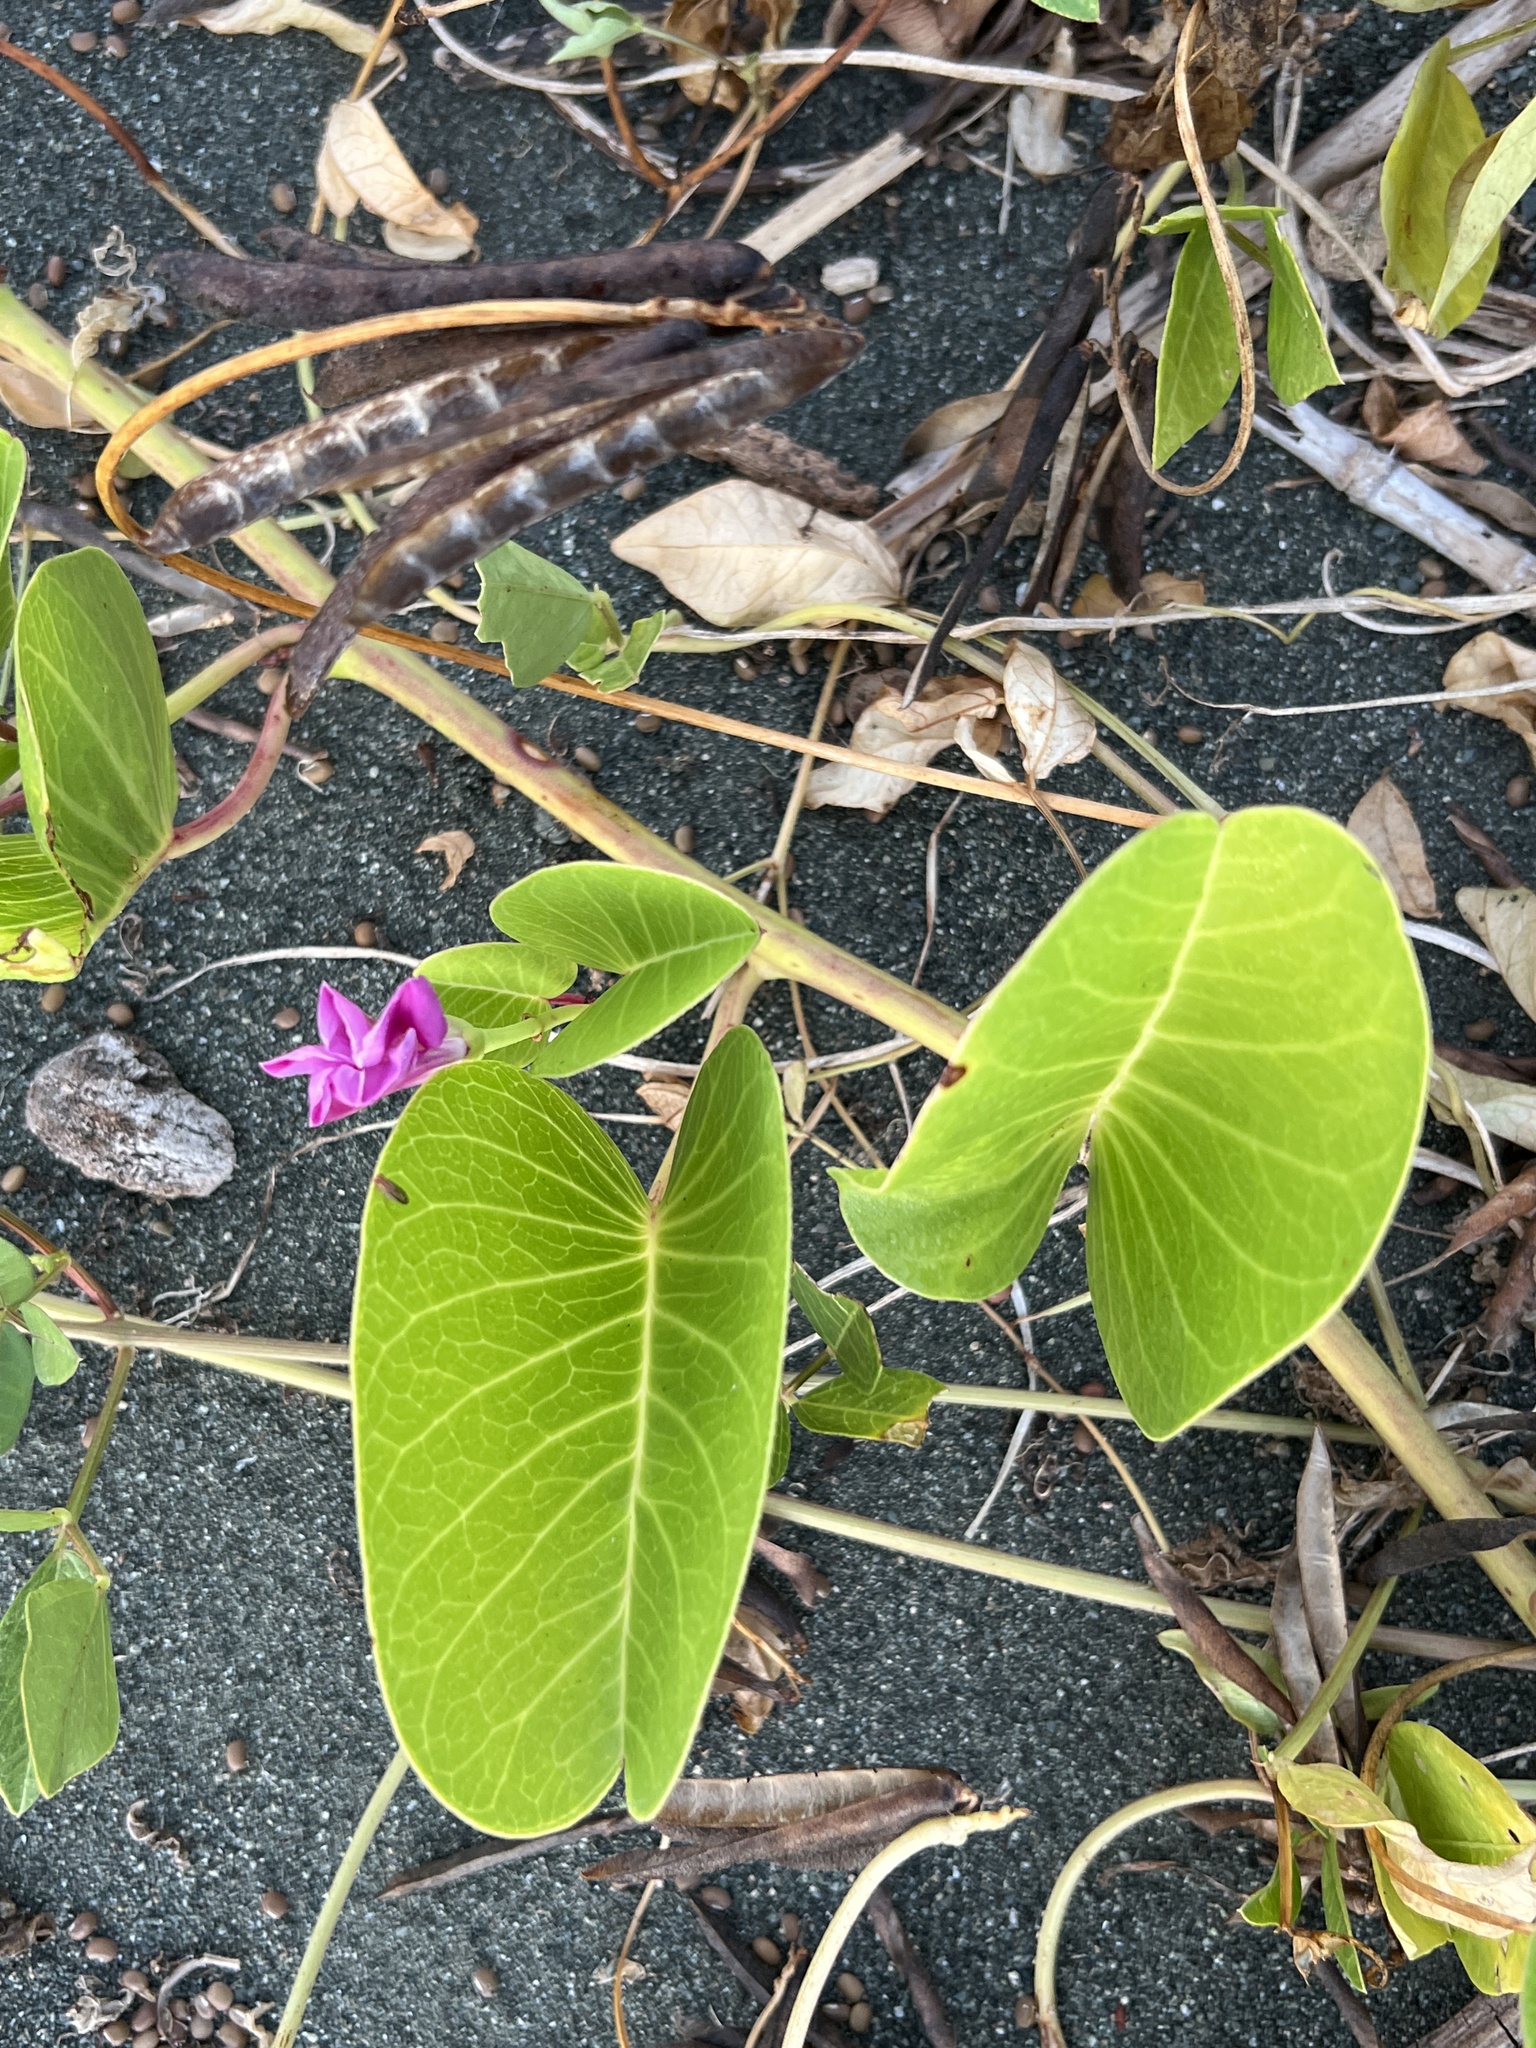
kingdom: Plantae
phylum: Tracheophyta
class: Magnoliopsida
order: Solanales
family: Convolvulaceae
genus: Ipomoea
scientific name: Ipomoea pes-caprae
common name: Beach morning glory
